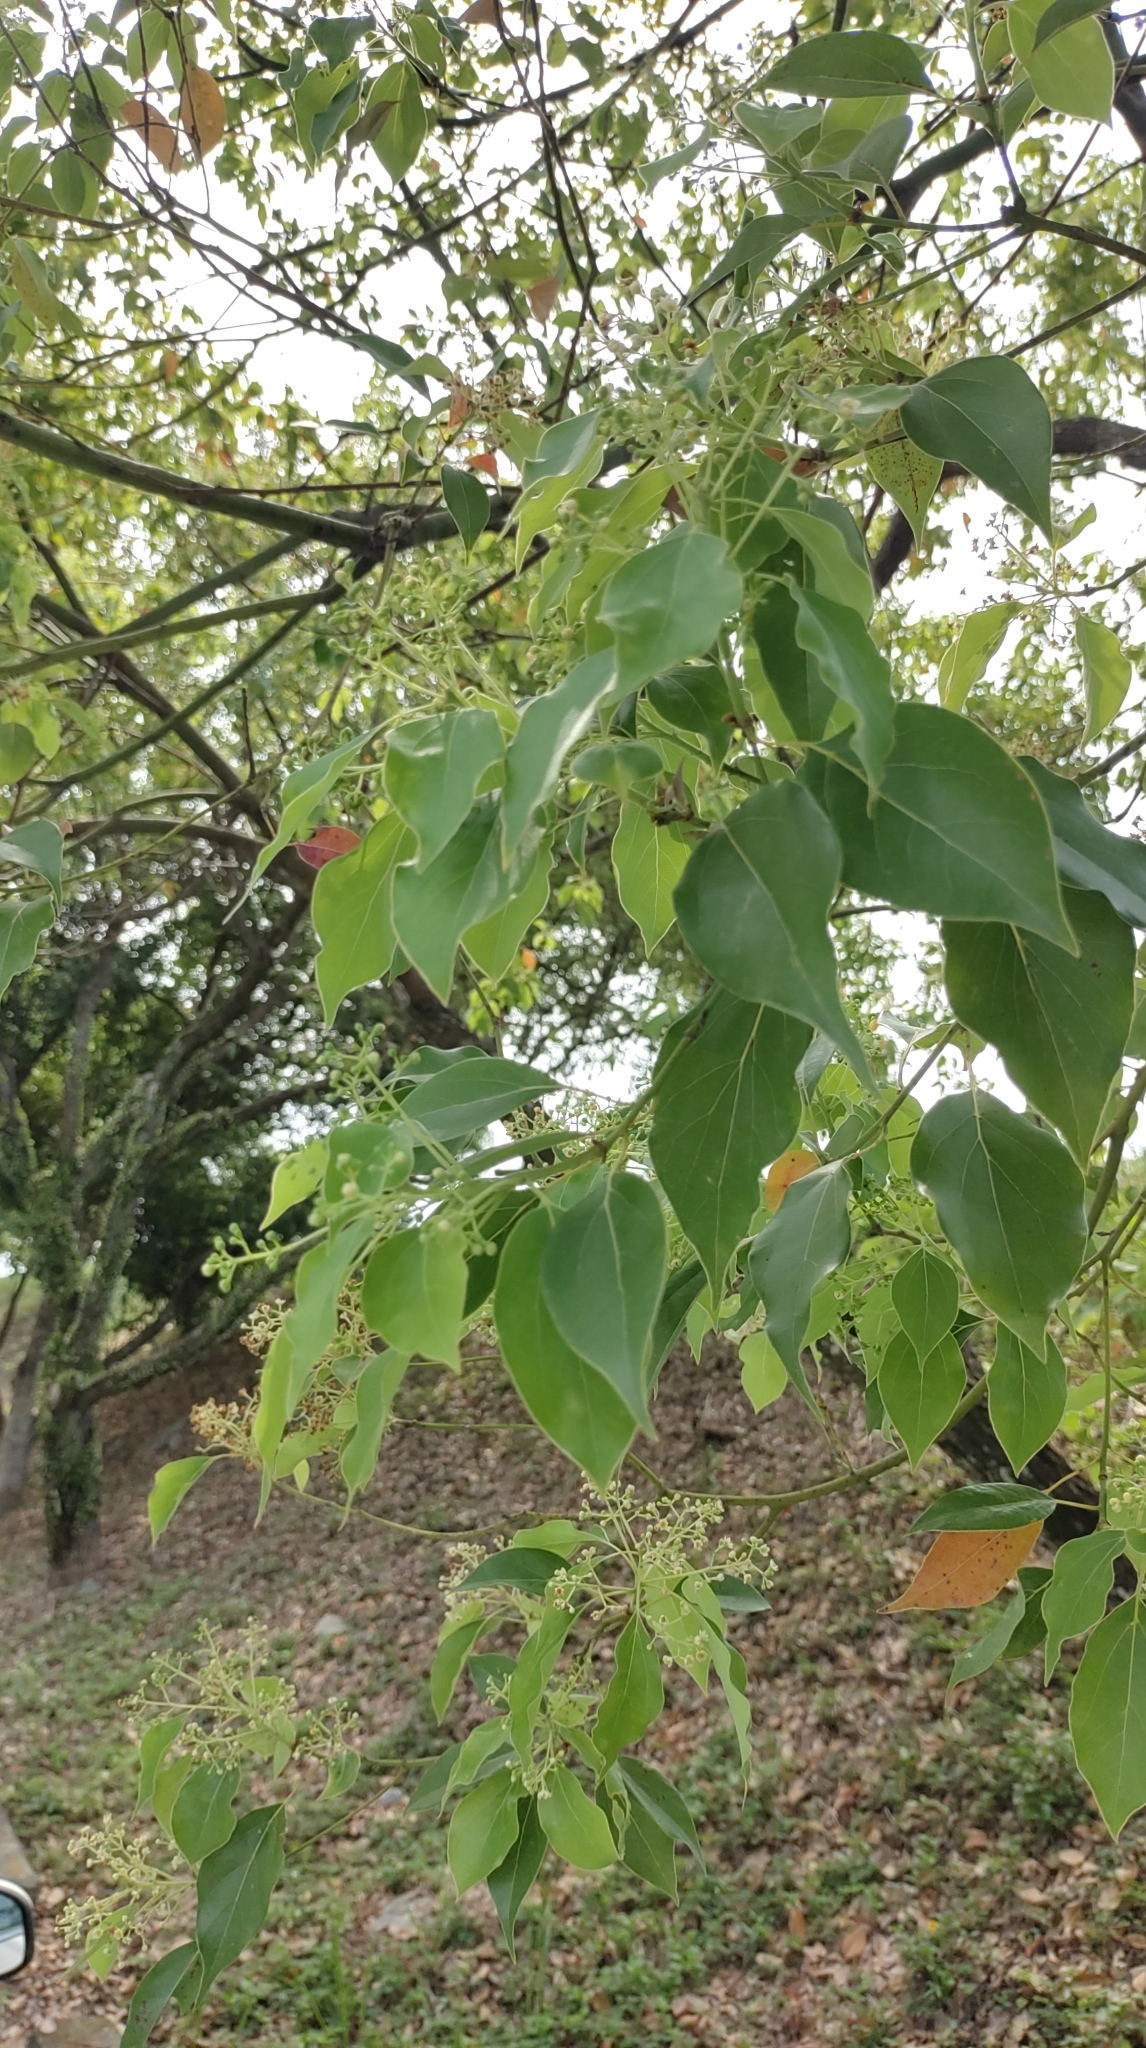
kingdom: Plantae
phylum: Tracheophyta
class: Magnoliopsida
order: Laurales
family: Lauraceae
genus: Cinnamomum
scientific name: Cinnamomum camphora
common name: Camphortree
